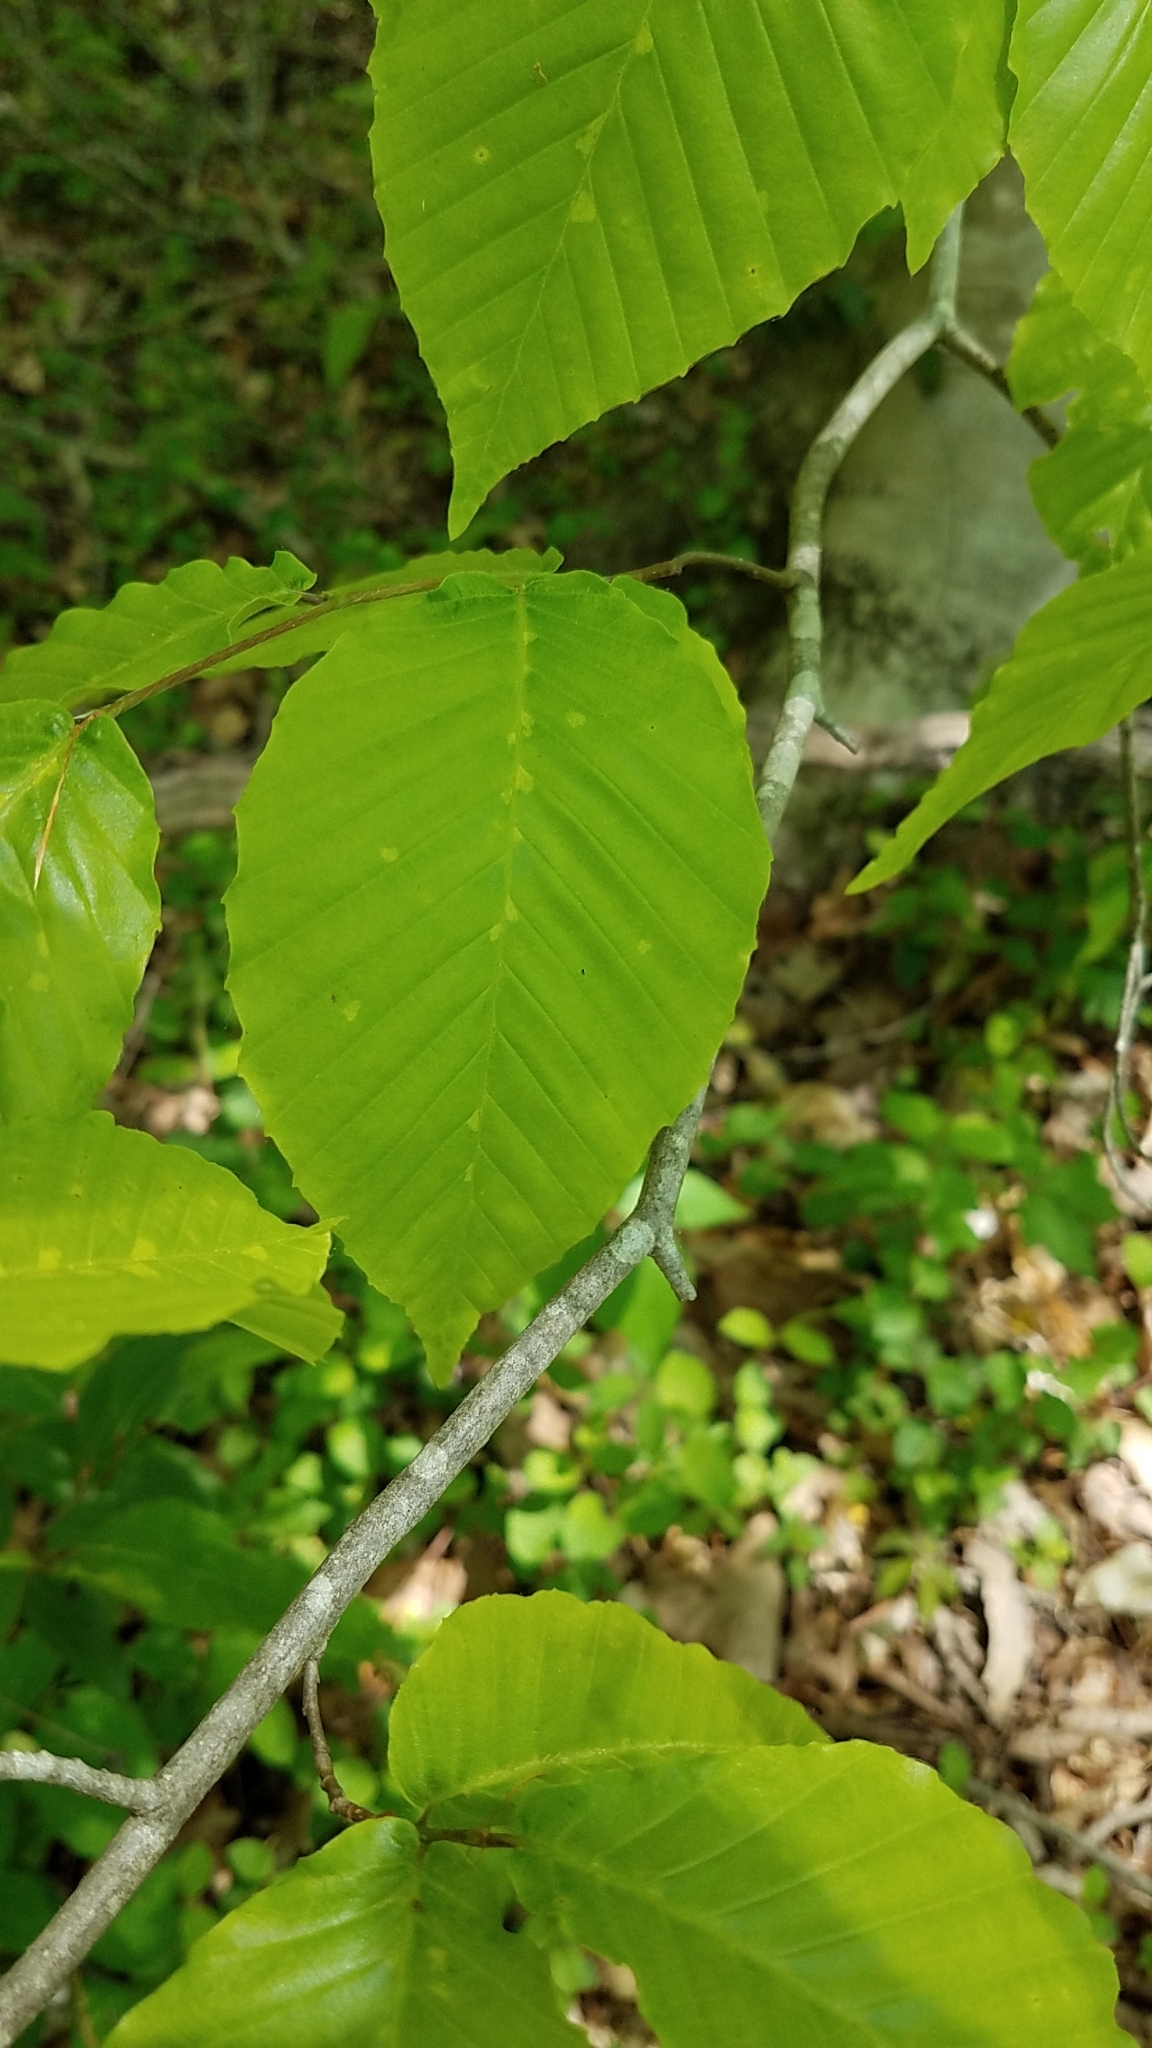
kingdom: Plantae
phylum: Tracheophyta
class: Magnoliopsida
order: Fagales
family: Fagaceae
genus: Fagus
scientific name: Fagus grandifolia
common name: American beech
